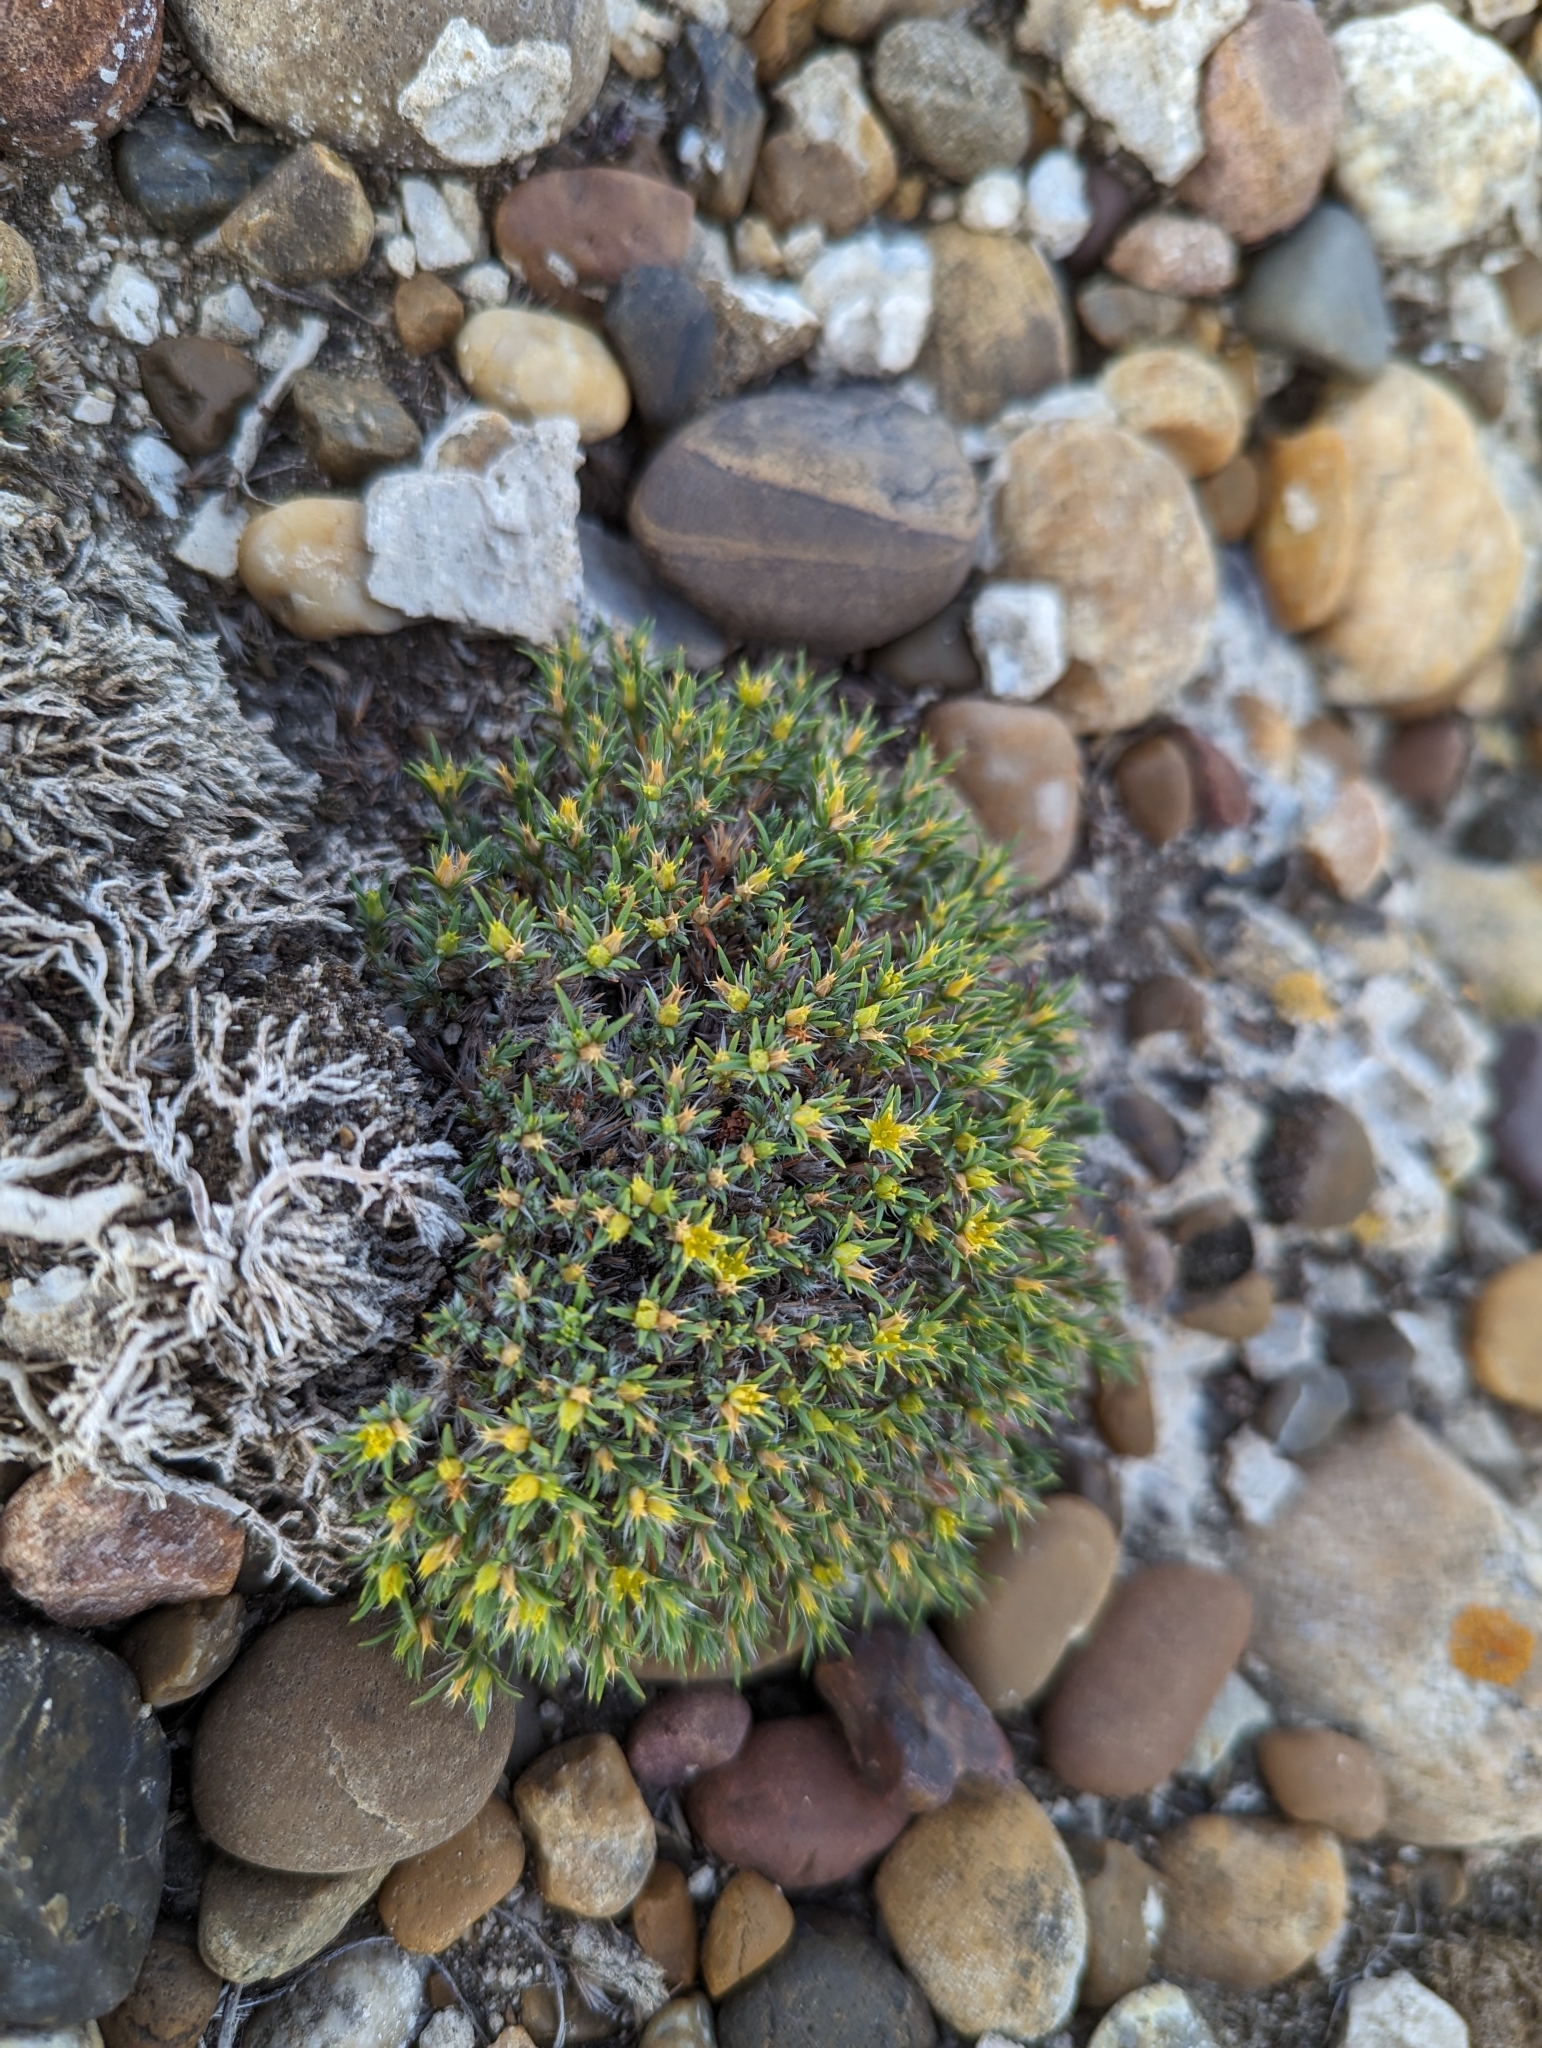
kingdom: Plantae
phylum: Tracheophyta
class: Magnoliopsida
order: Caryophyllales
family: Caryophyllaceae
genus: Paronychia
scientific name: Paronychia sessiliflora
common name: Creeping nailwort
